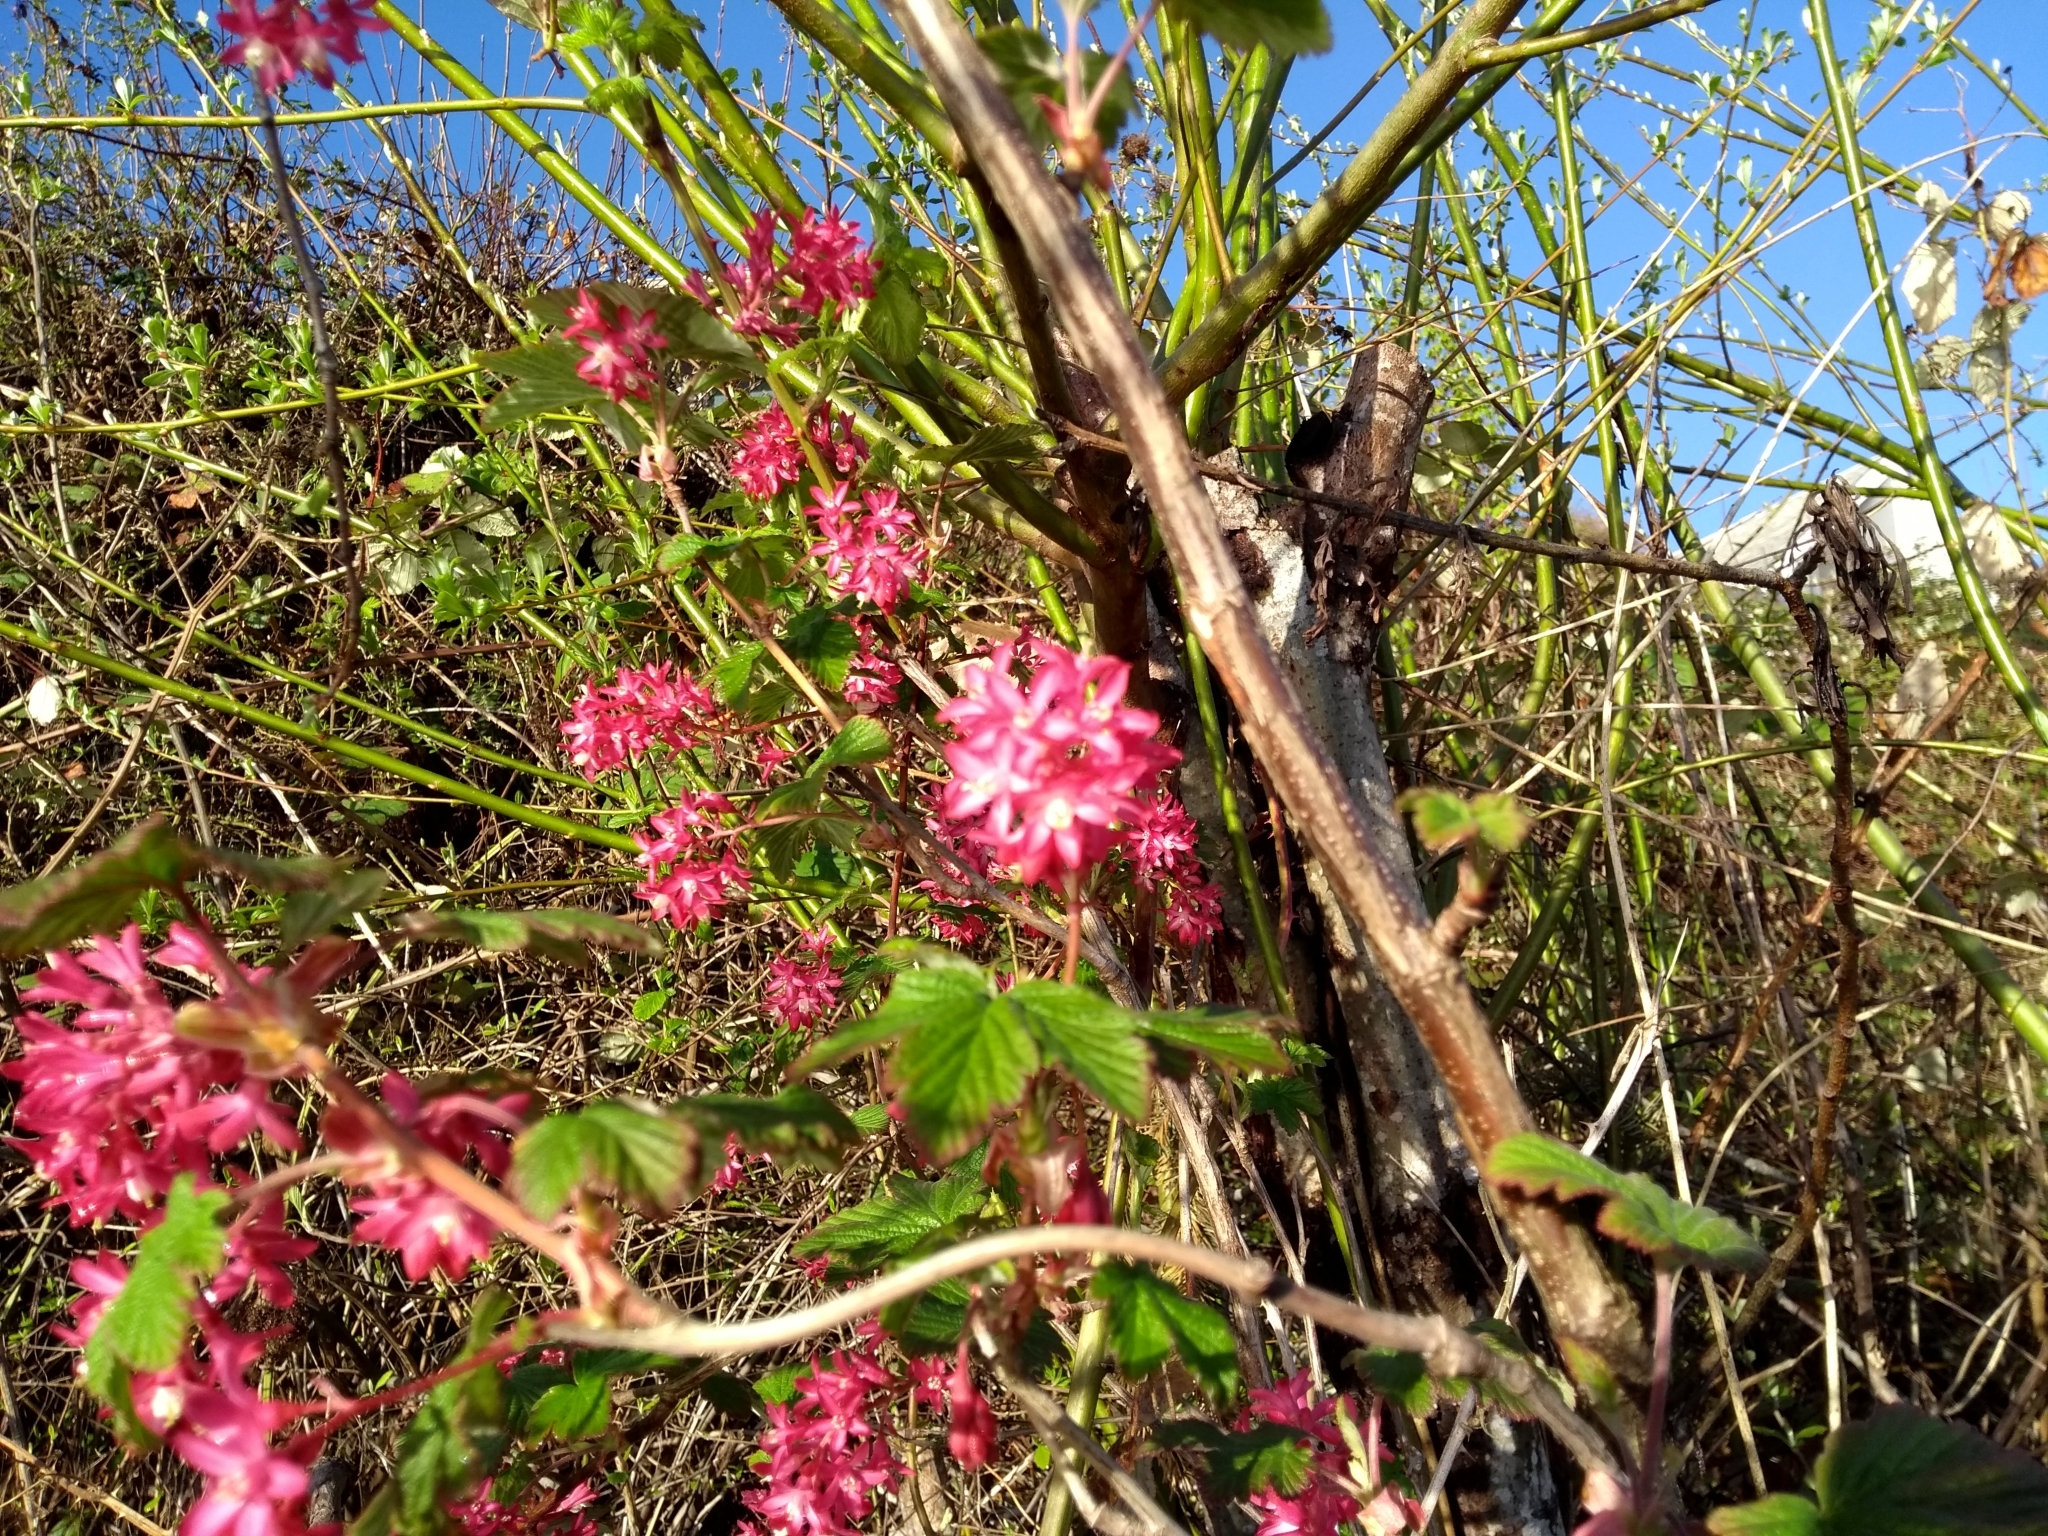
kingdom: Plantae
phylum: Tracheophyta
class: Magnoliopsida
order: Saxifragales
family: Grossulariaceae
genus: Ribes
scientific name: Ribes sanguineum
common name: Flowering currant
